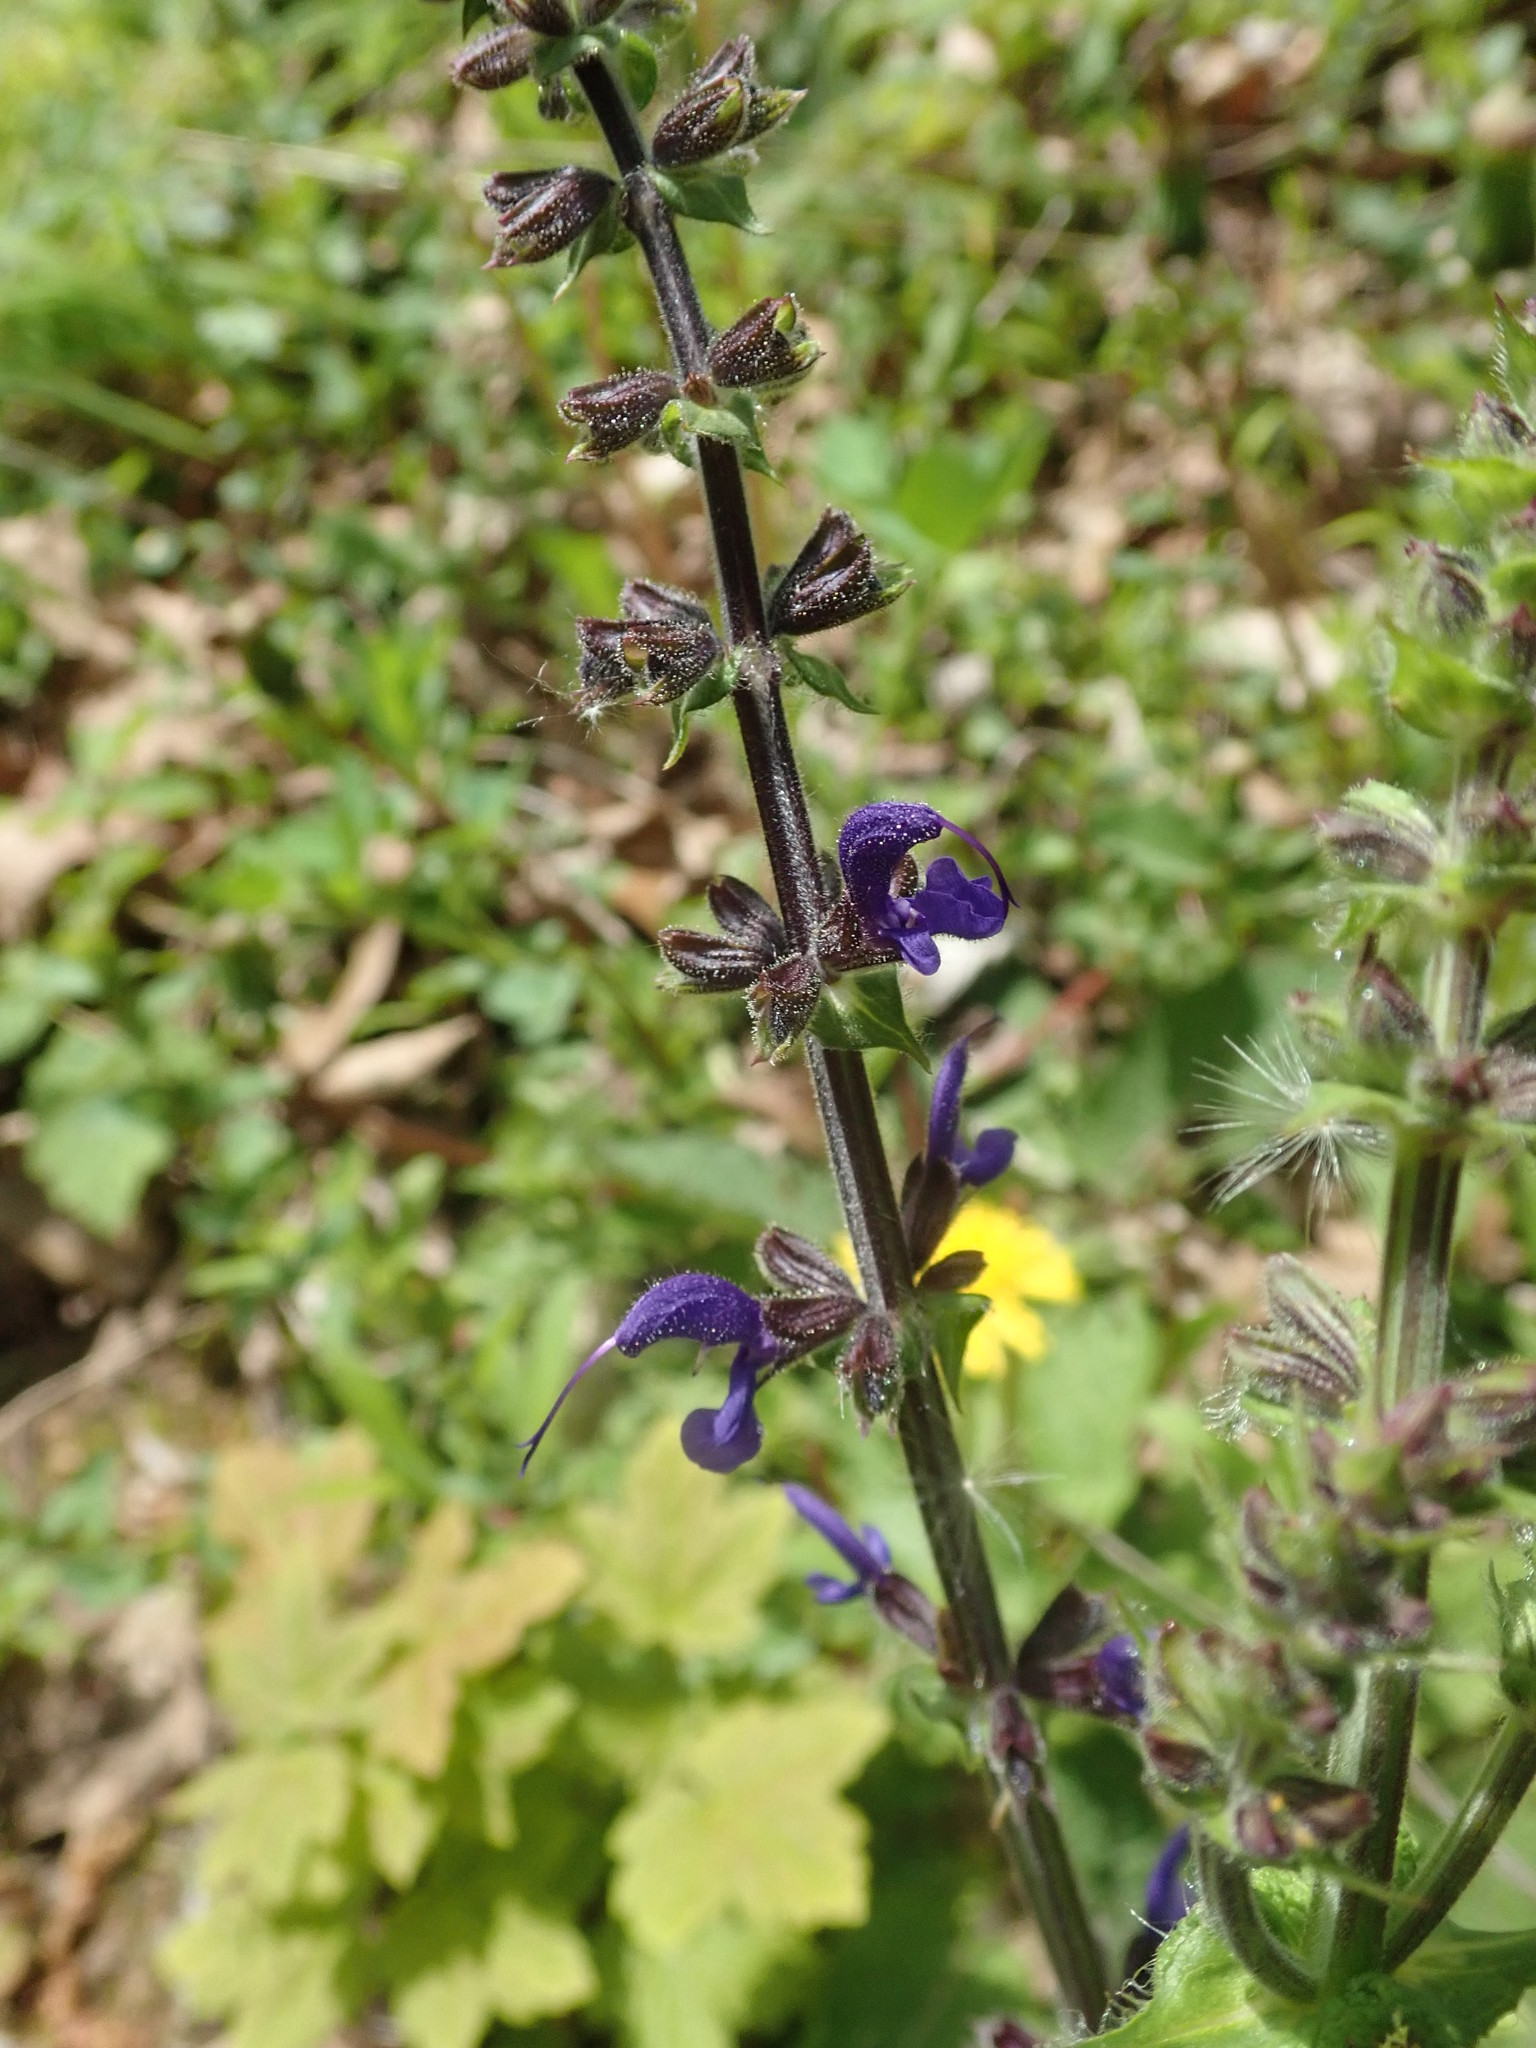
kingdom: Plantae
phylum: Tracheophyta
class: Magnoliopsida
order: Lamiales
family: Lamiaceae
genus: Salvia
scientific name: Salvia pratensis
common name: Meadow sage
